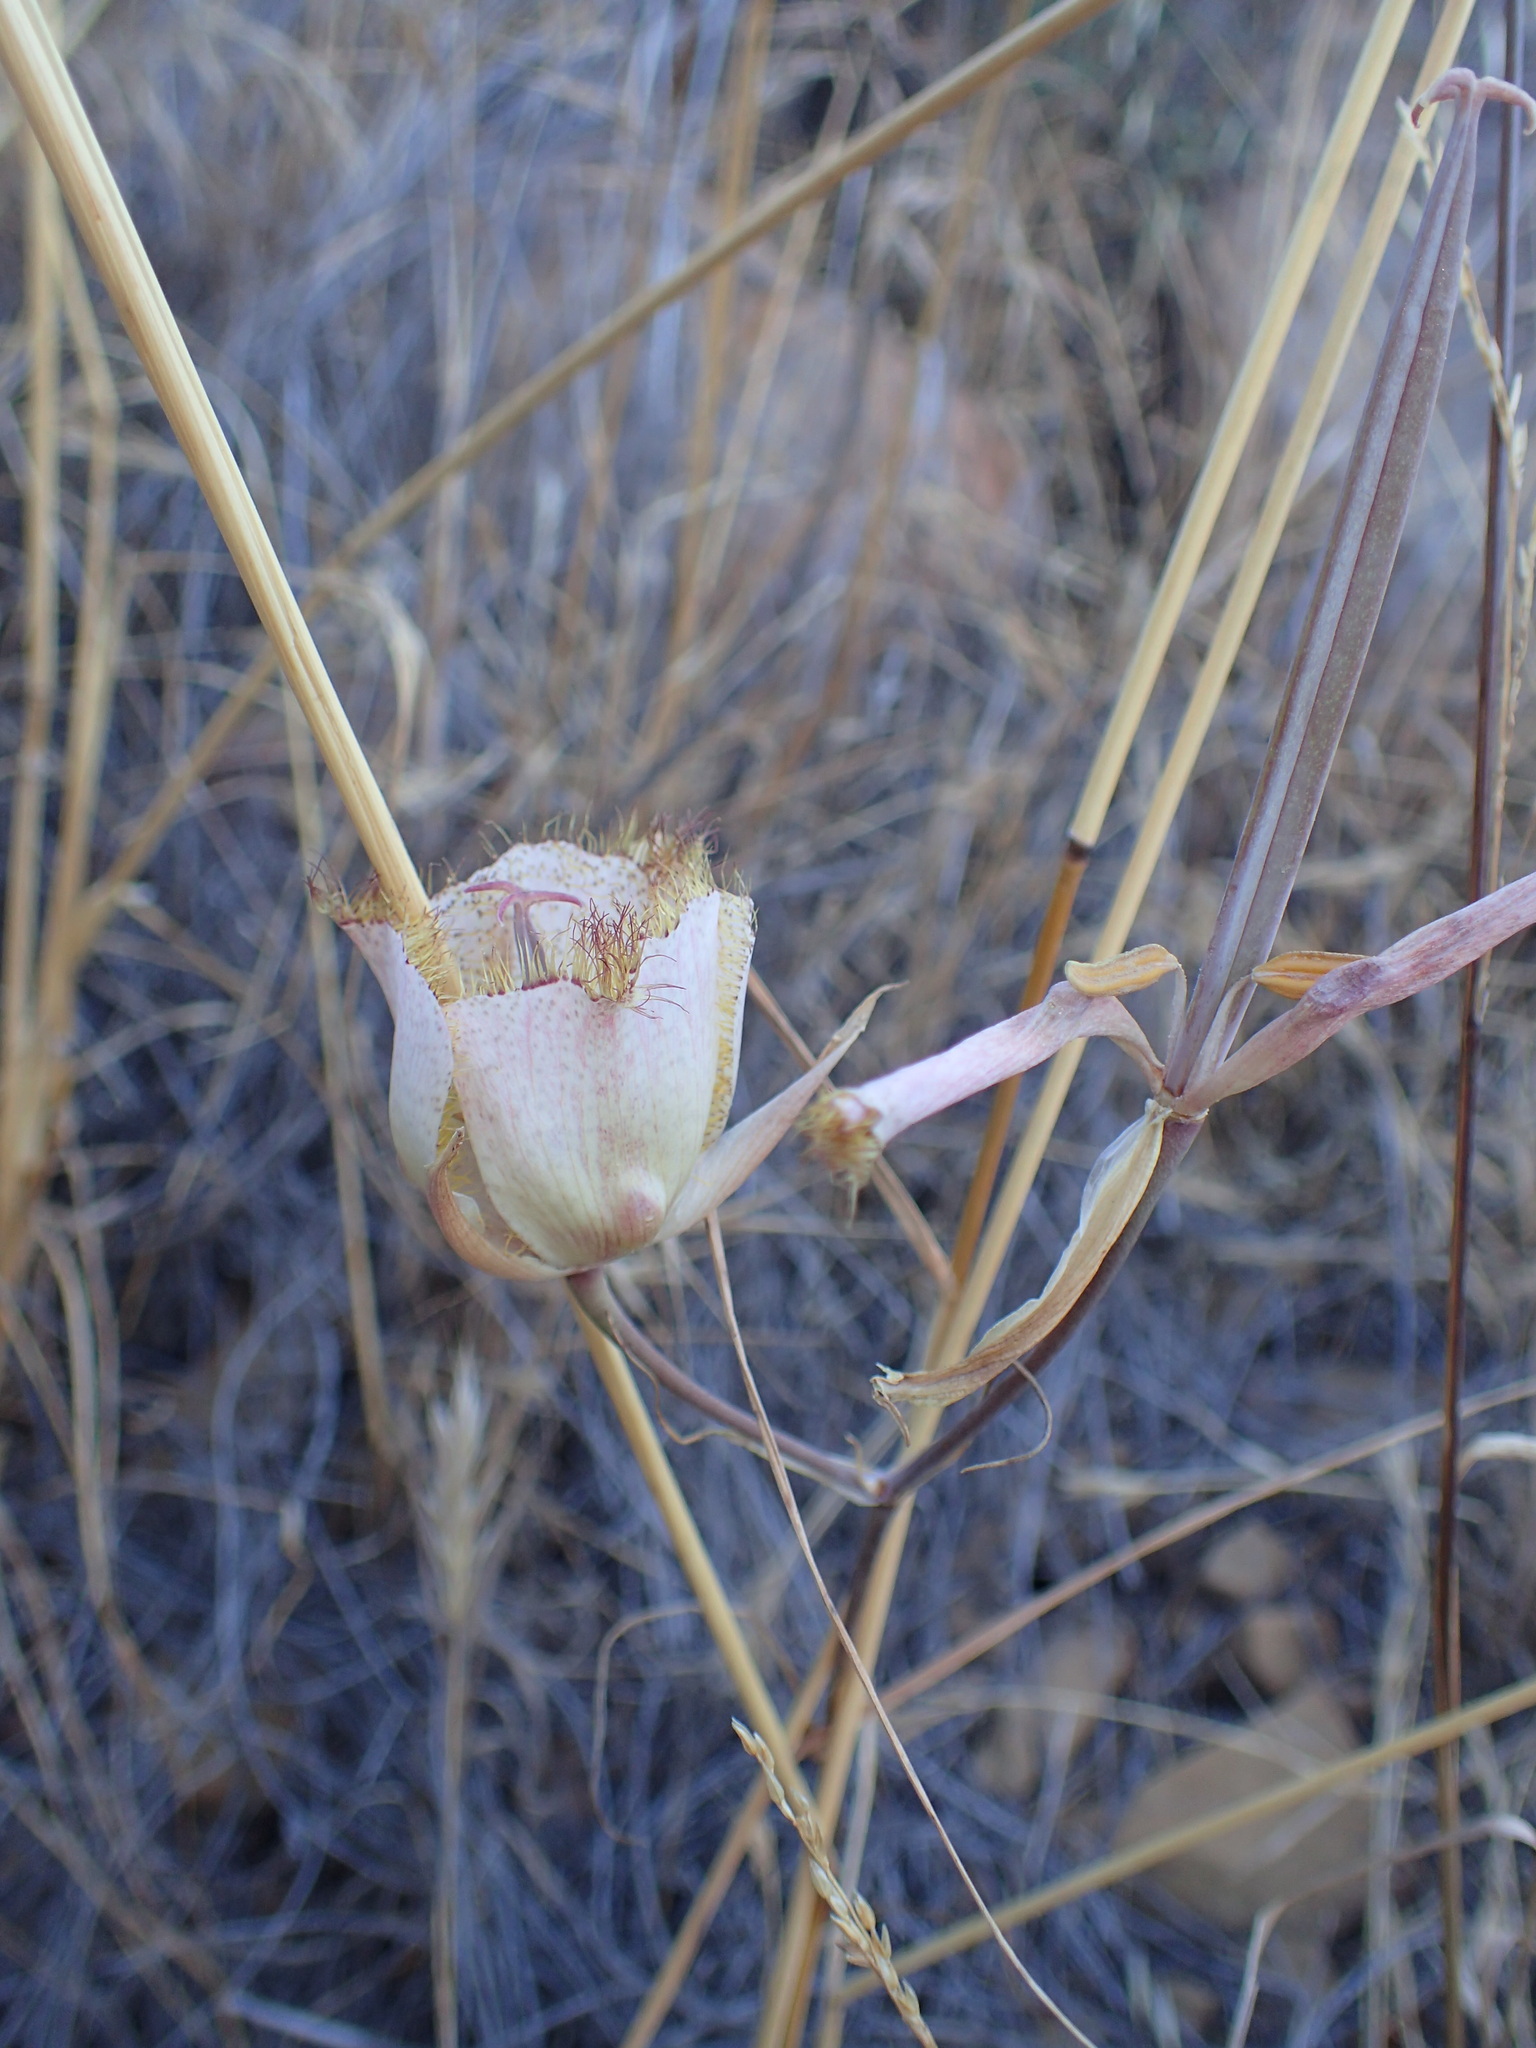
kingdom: Plantae
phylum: Tracheophyta
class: Liliopsida
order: Liliales
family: Liliaceae
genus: Calochortus
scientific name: Calochortus fimbriatus
